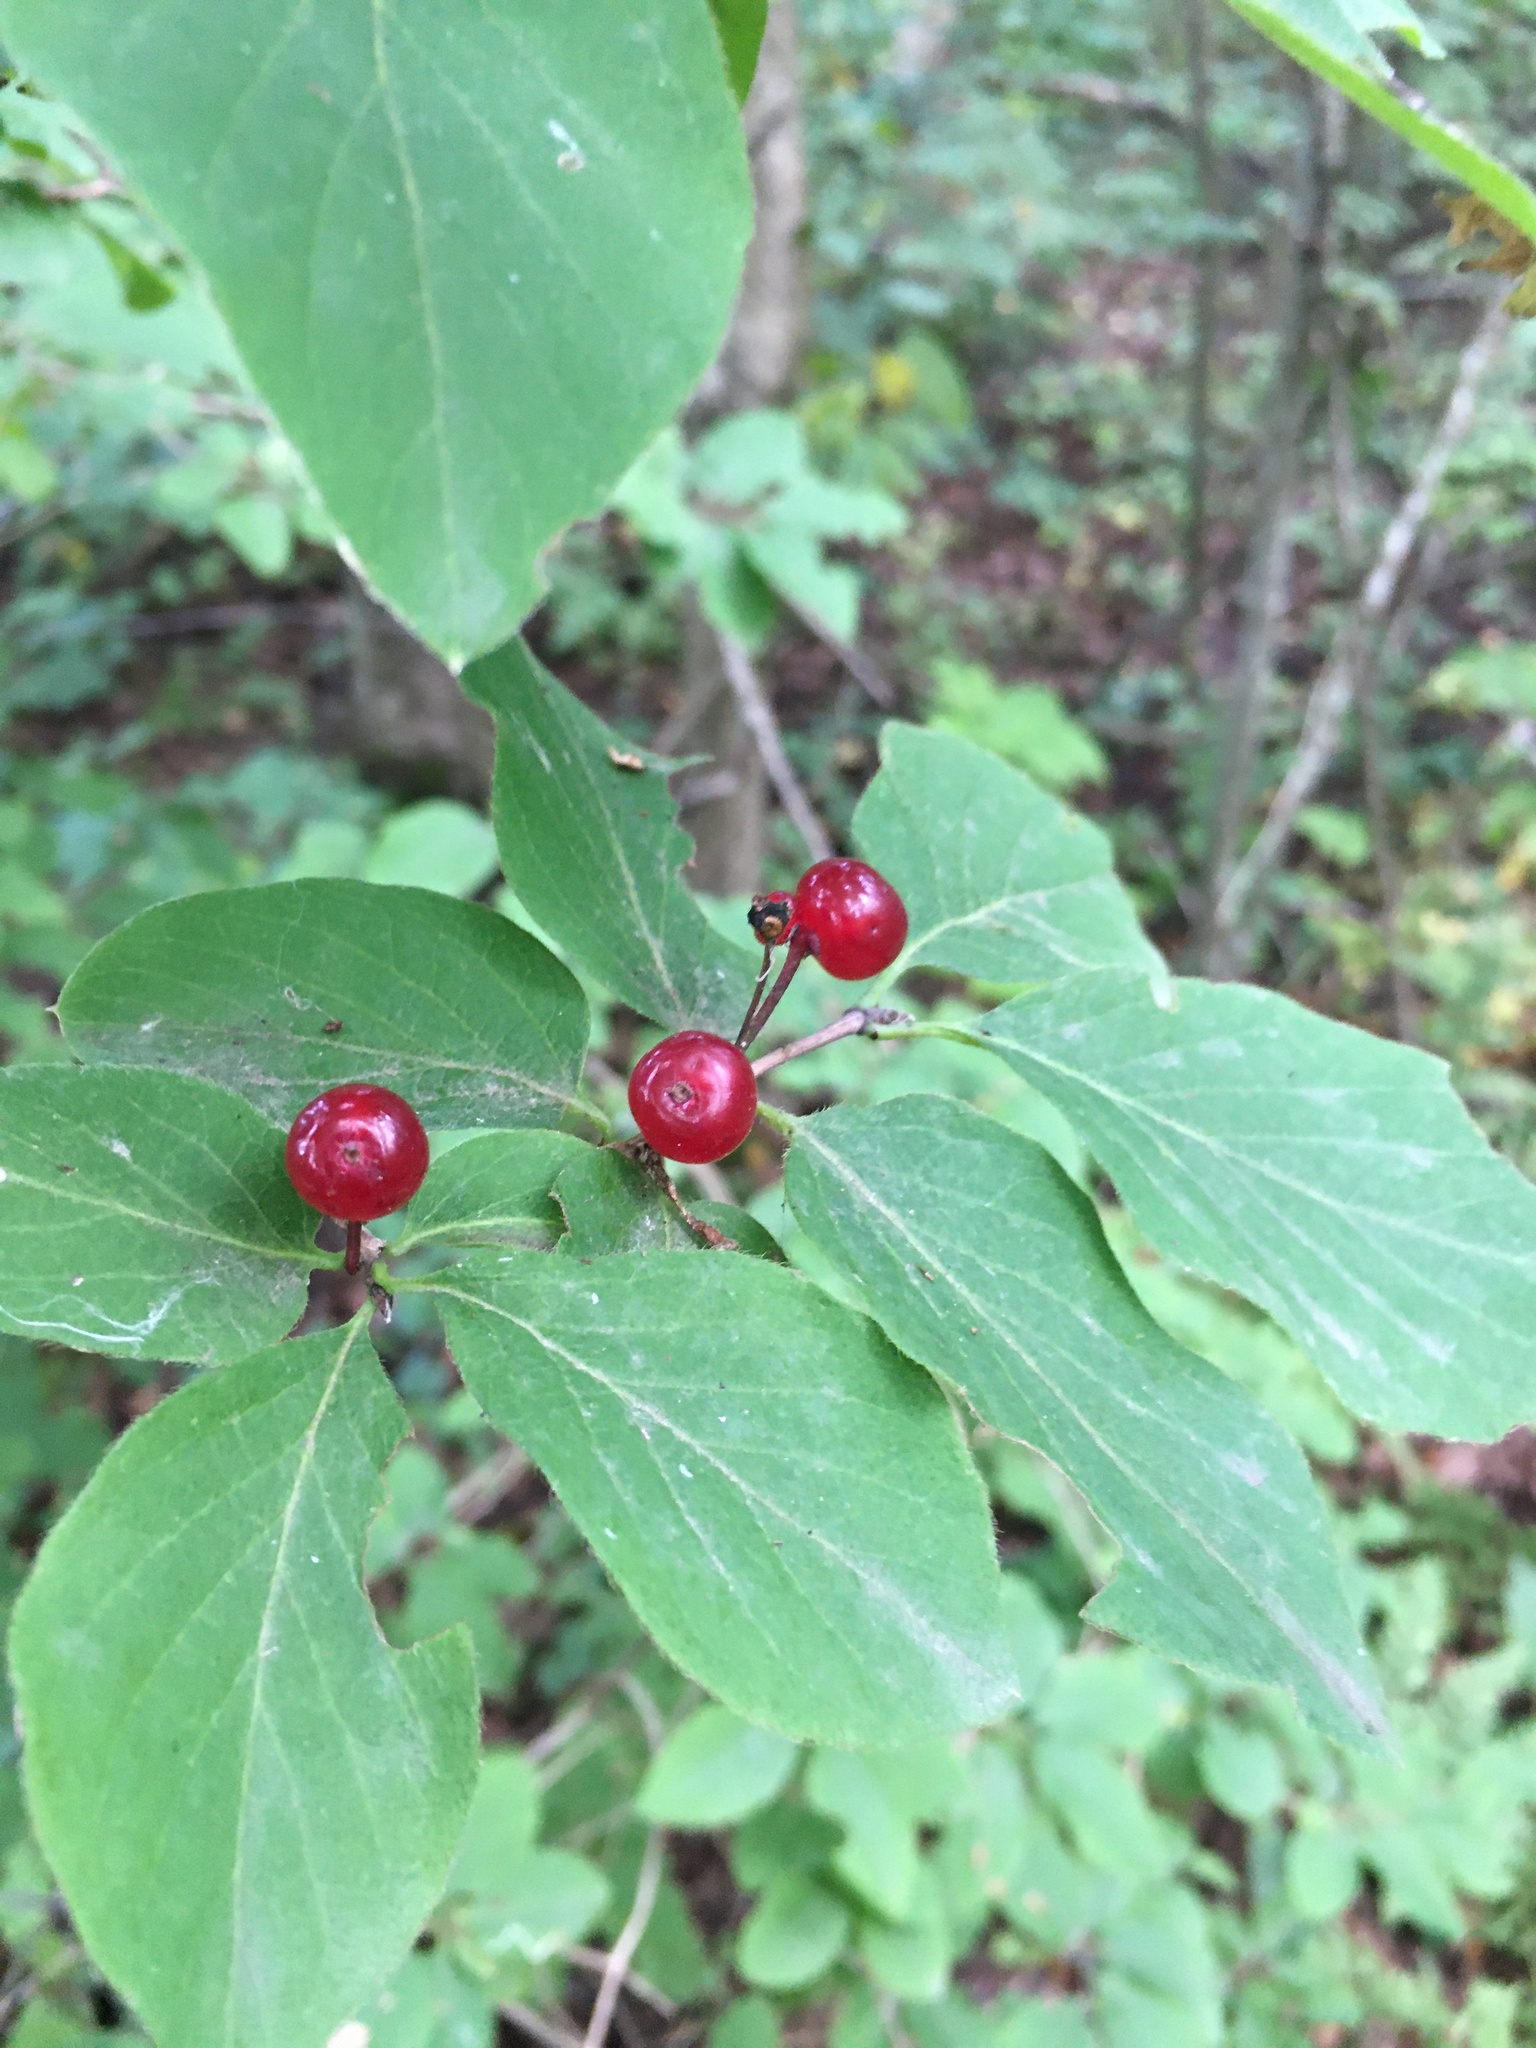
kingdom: Plantae
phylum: Tracheophyta
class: Magnoliopsida
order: Dipsacales
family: Caprifoliaceae
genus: Lonicera
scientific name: Lonicera xylosteum
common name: Fly honeysuckle
